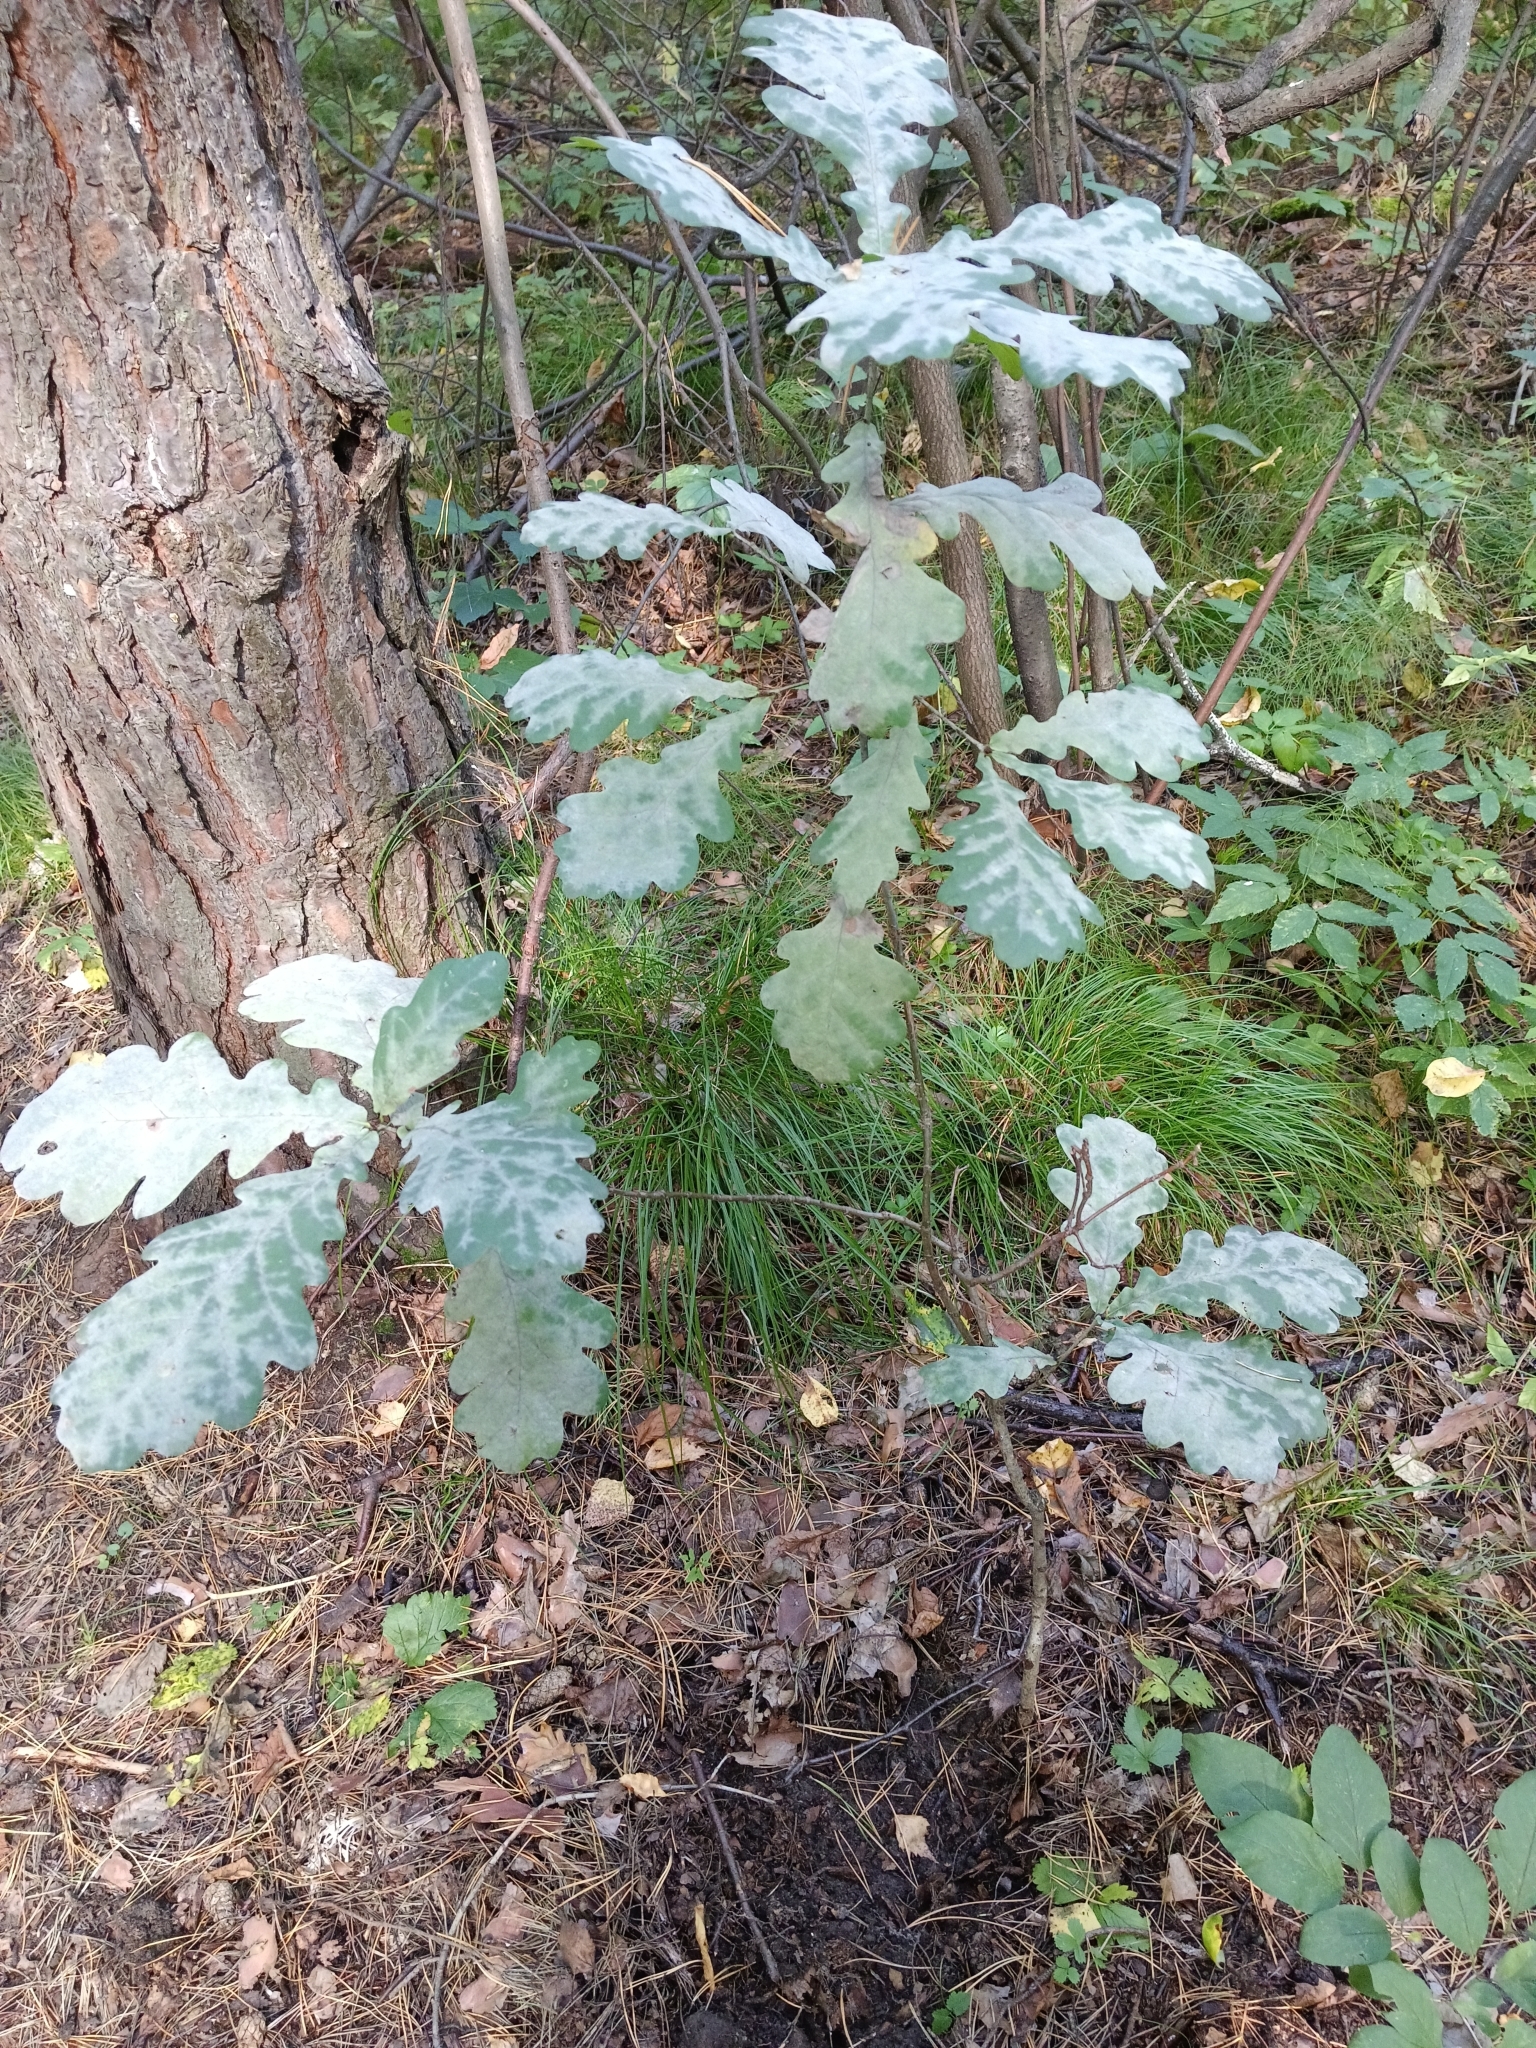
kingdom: Plantae
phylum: Tracheophyta
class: Magnoliopsida
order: Fagales
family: Fagaceae
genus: Quercus
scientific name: Quercus robur
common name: Pedunculate oak
